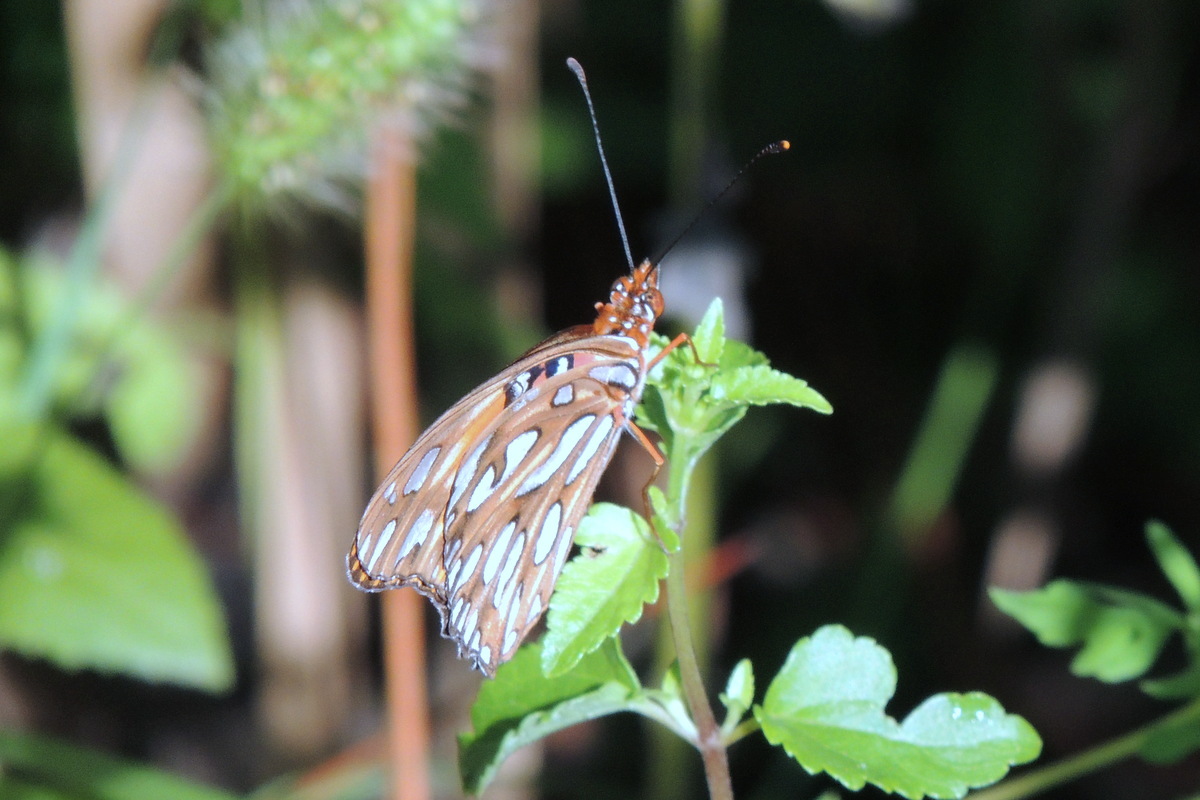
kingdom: Animalia
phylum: Arthropoda
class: Insecta
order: Lepidoptera
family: Nymphalidae
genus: Dione
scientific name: Dione vanillae
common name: Gulf fritillary
